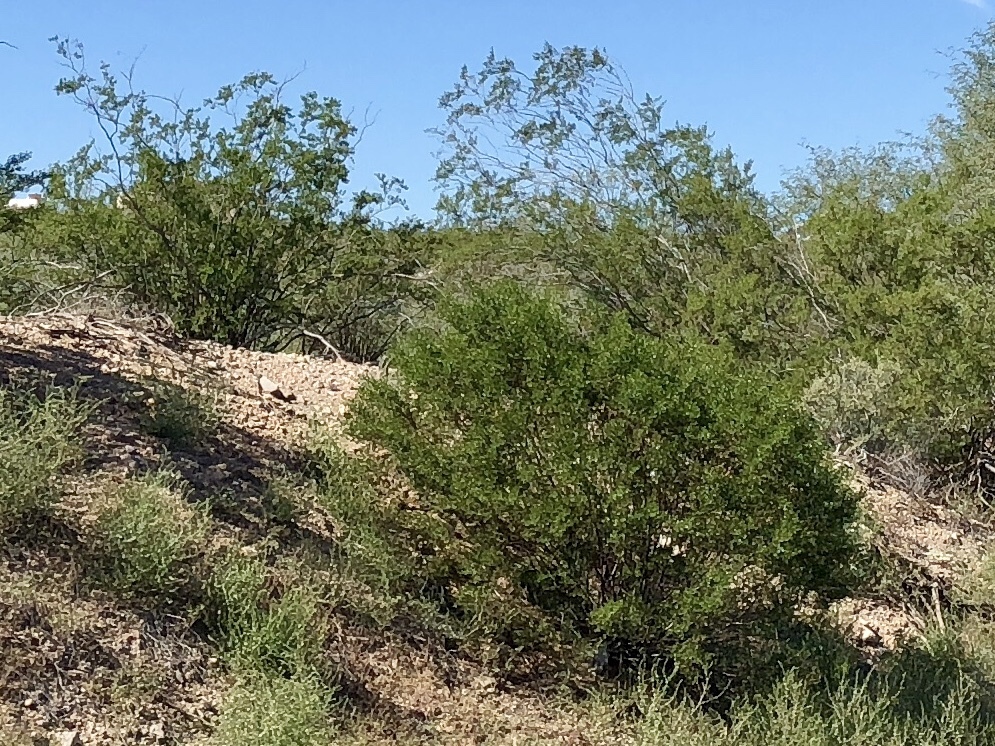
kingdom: Plantae
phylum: Tracheophyta
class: Magnoliopsida
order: Zygophyllales
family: Zygophyllaceae
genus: Larrea
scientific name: Larrea tridentata
